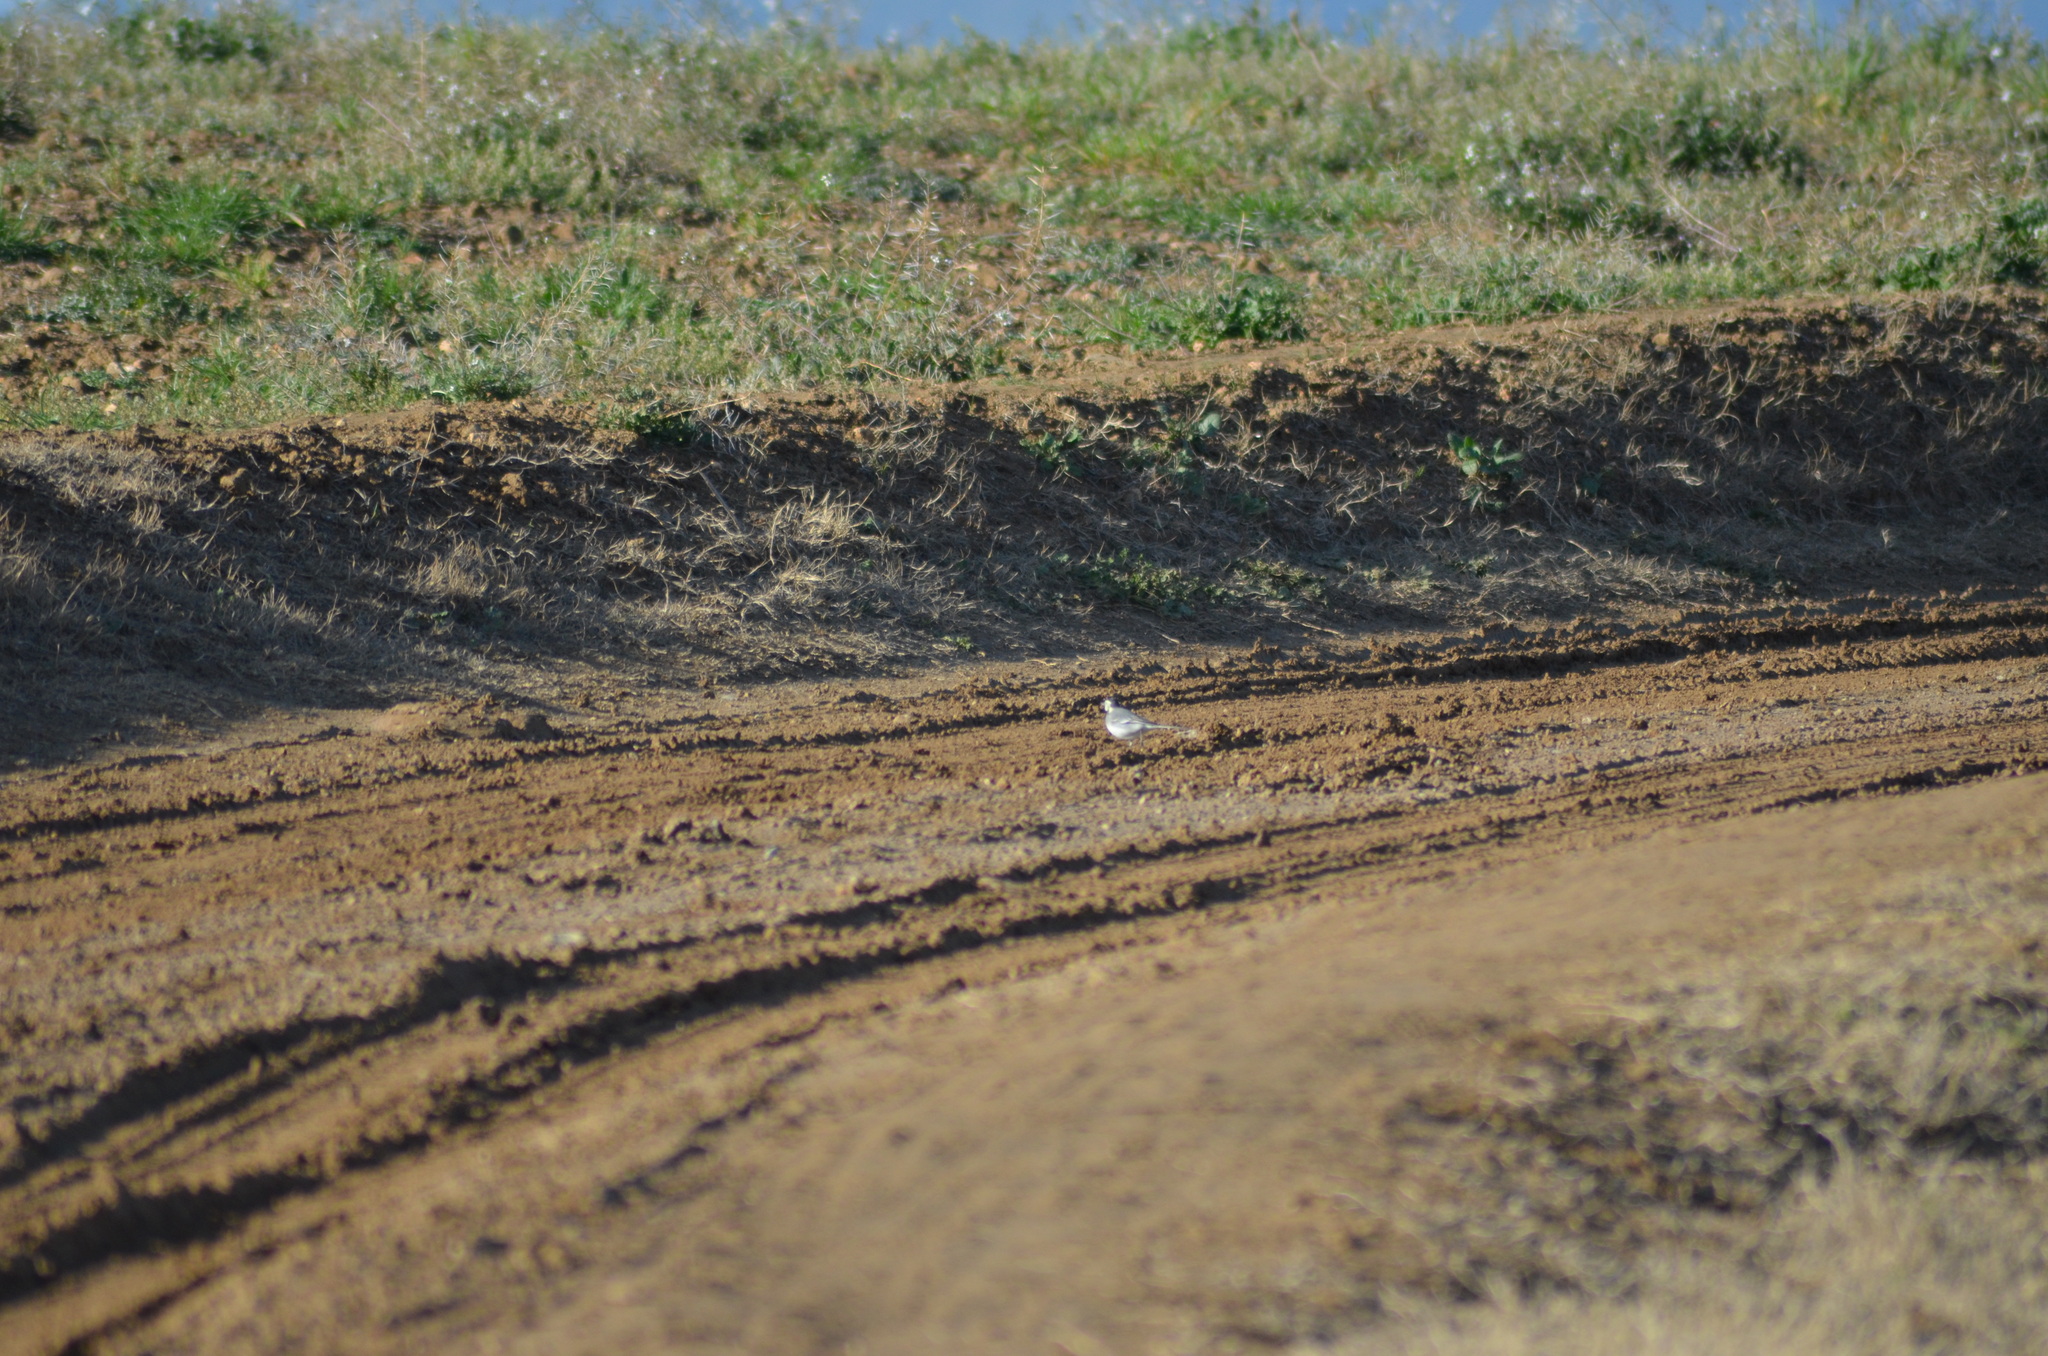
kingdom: Animalia
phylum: Chordata
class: Aves
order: Passeriformes
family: Motacillidae
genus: Motacilla
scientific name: Motacilla alba
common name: White wagtail
